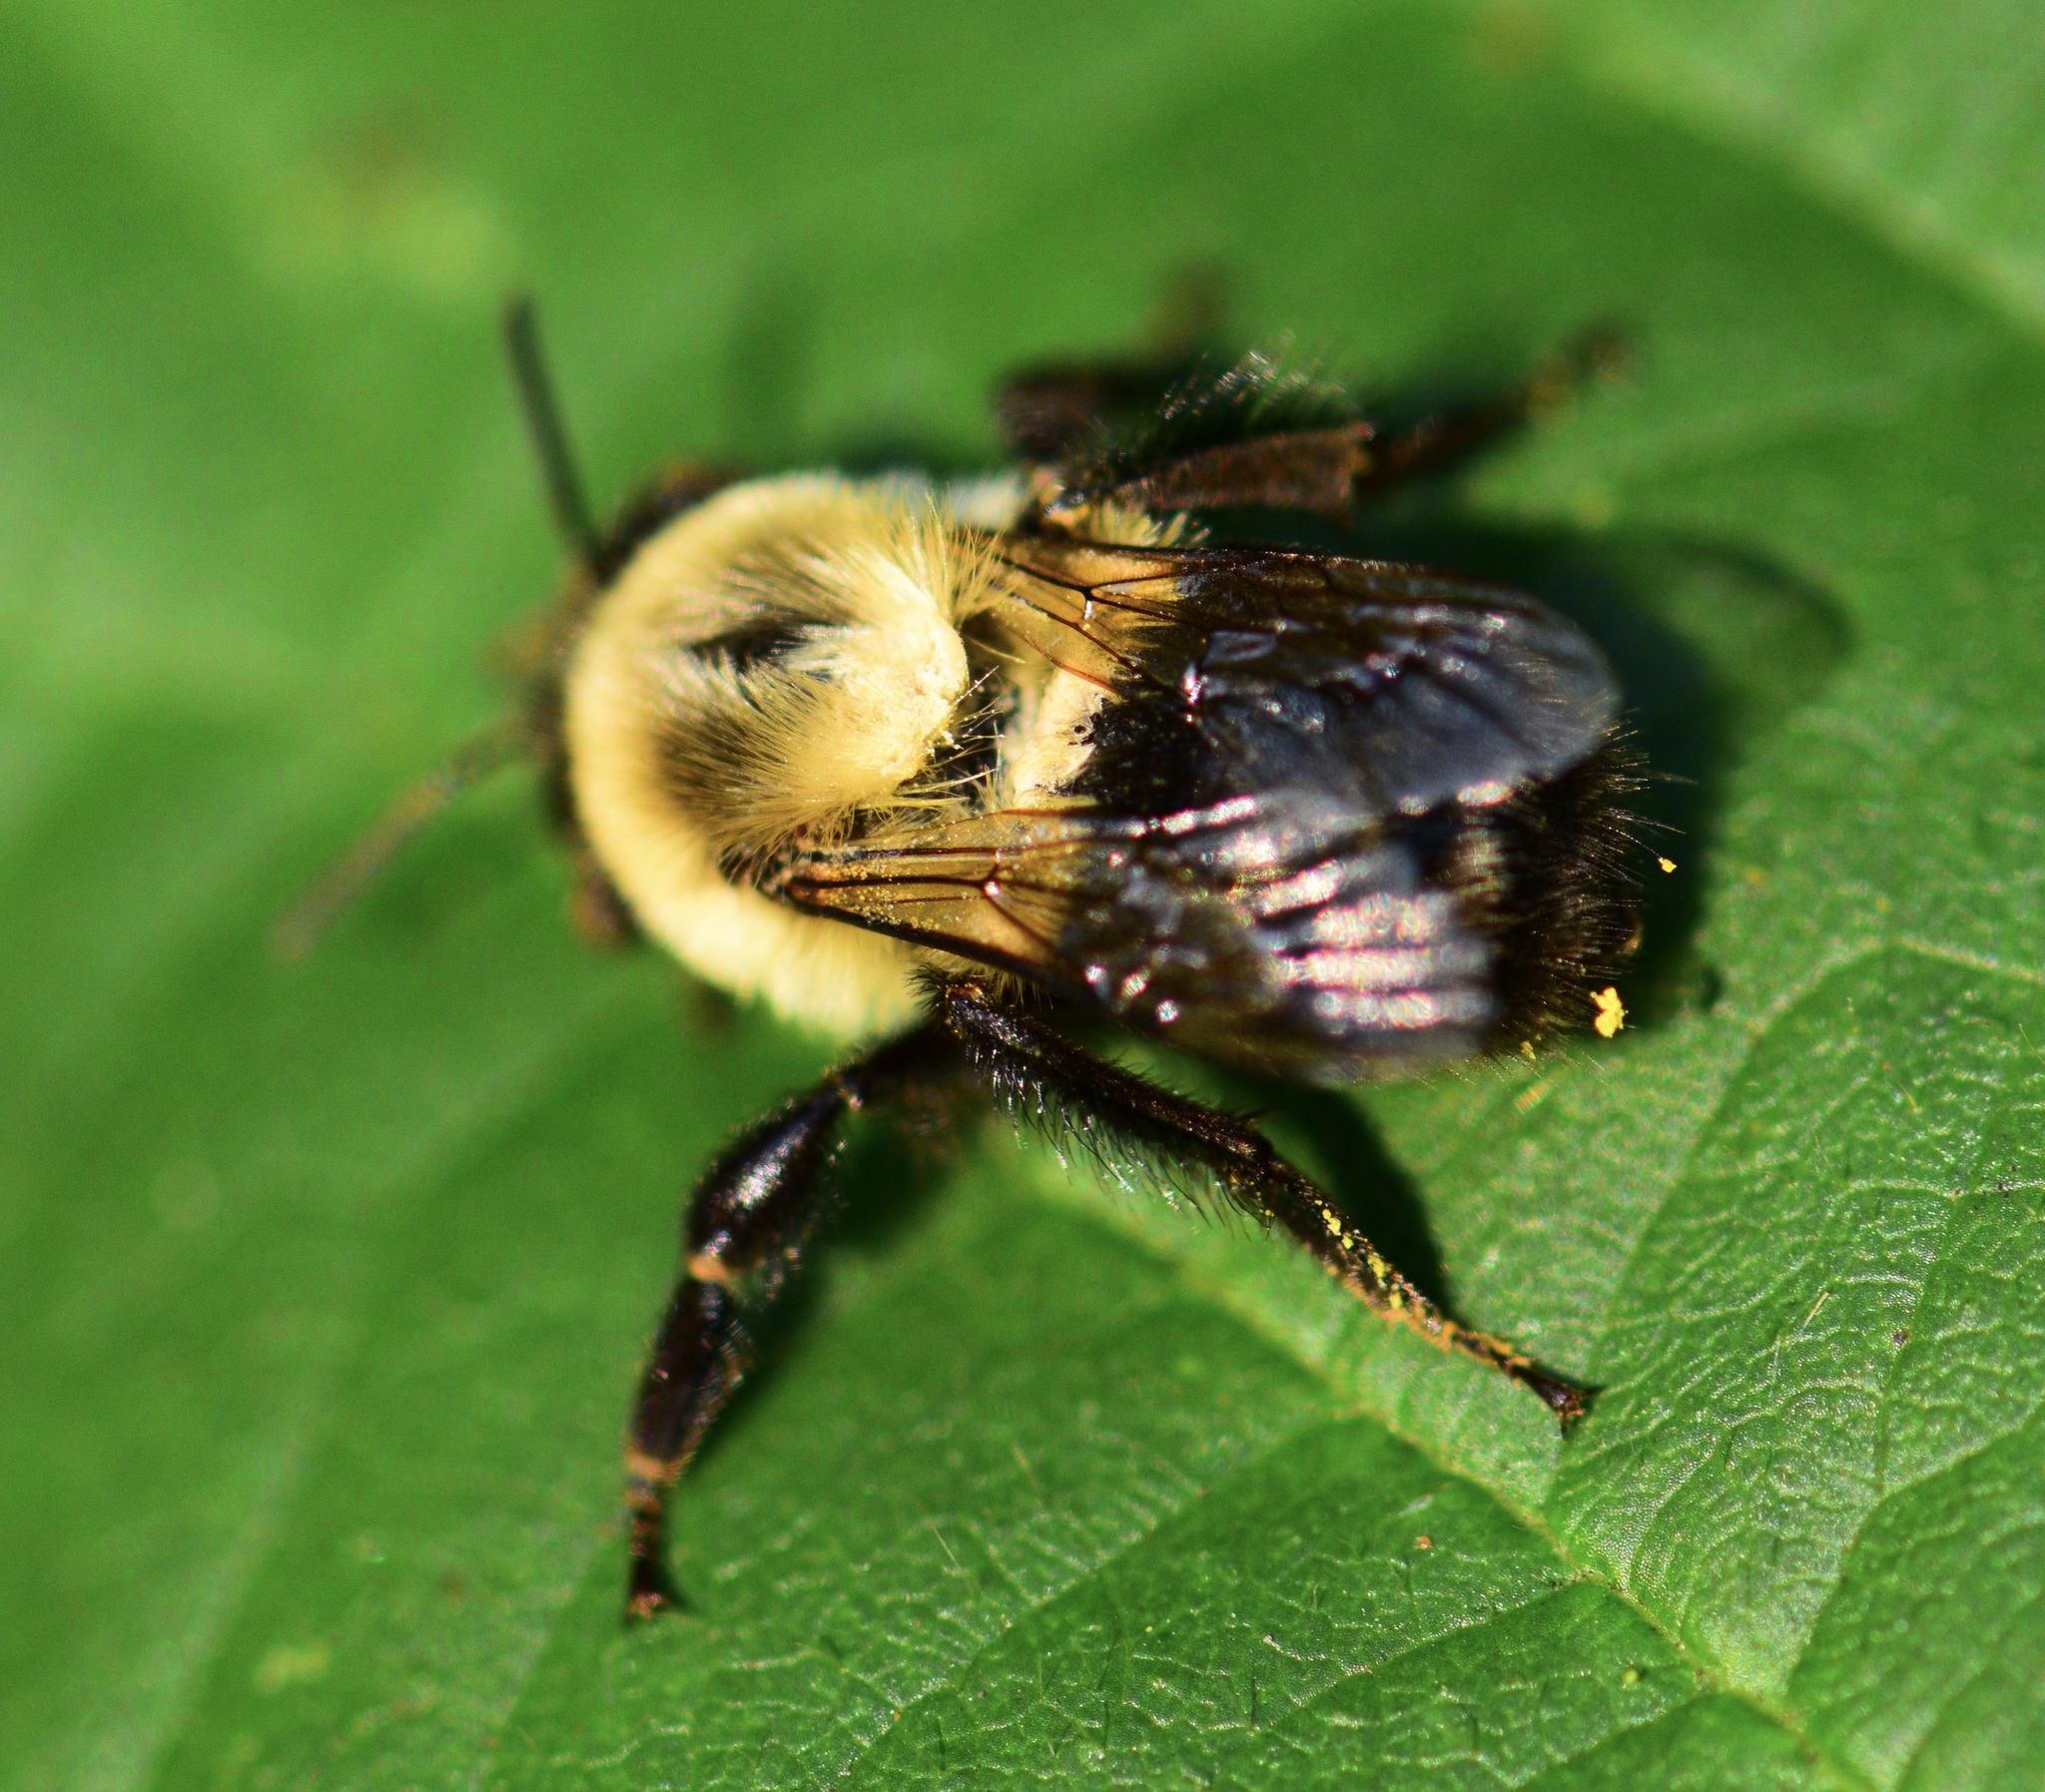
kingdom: Animalia
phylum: Arthropoda
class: Insecta
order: Hymenoptera
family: Apidae
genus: Bombus
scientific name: Bombus impatiens
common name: Common eastern bumble bee
